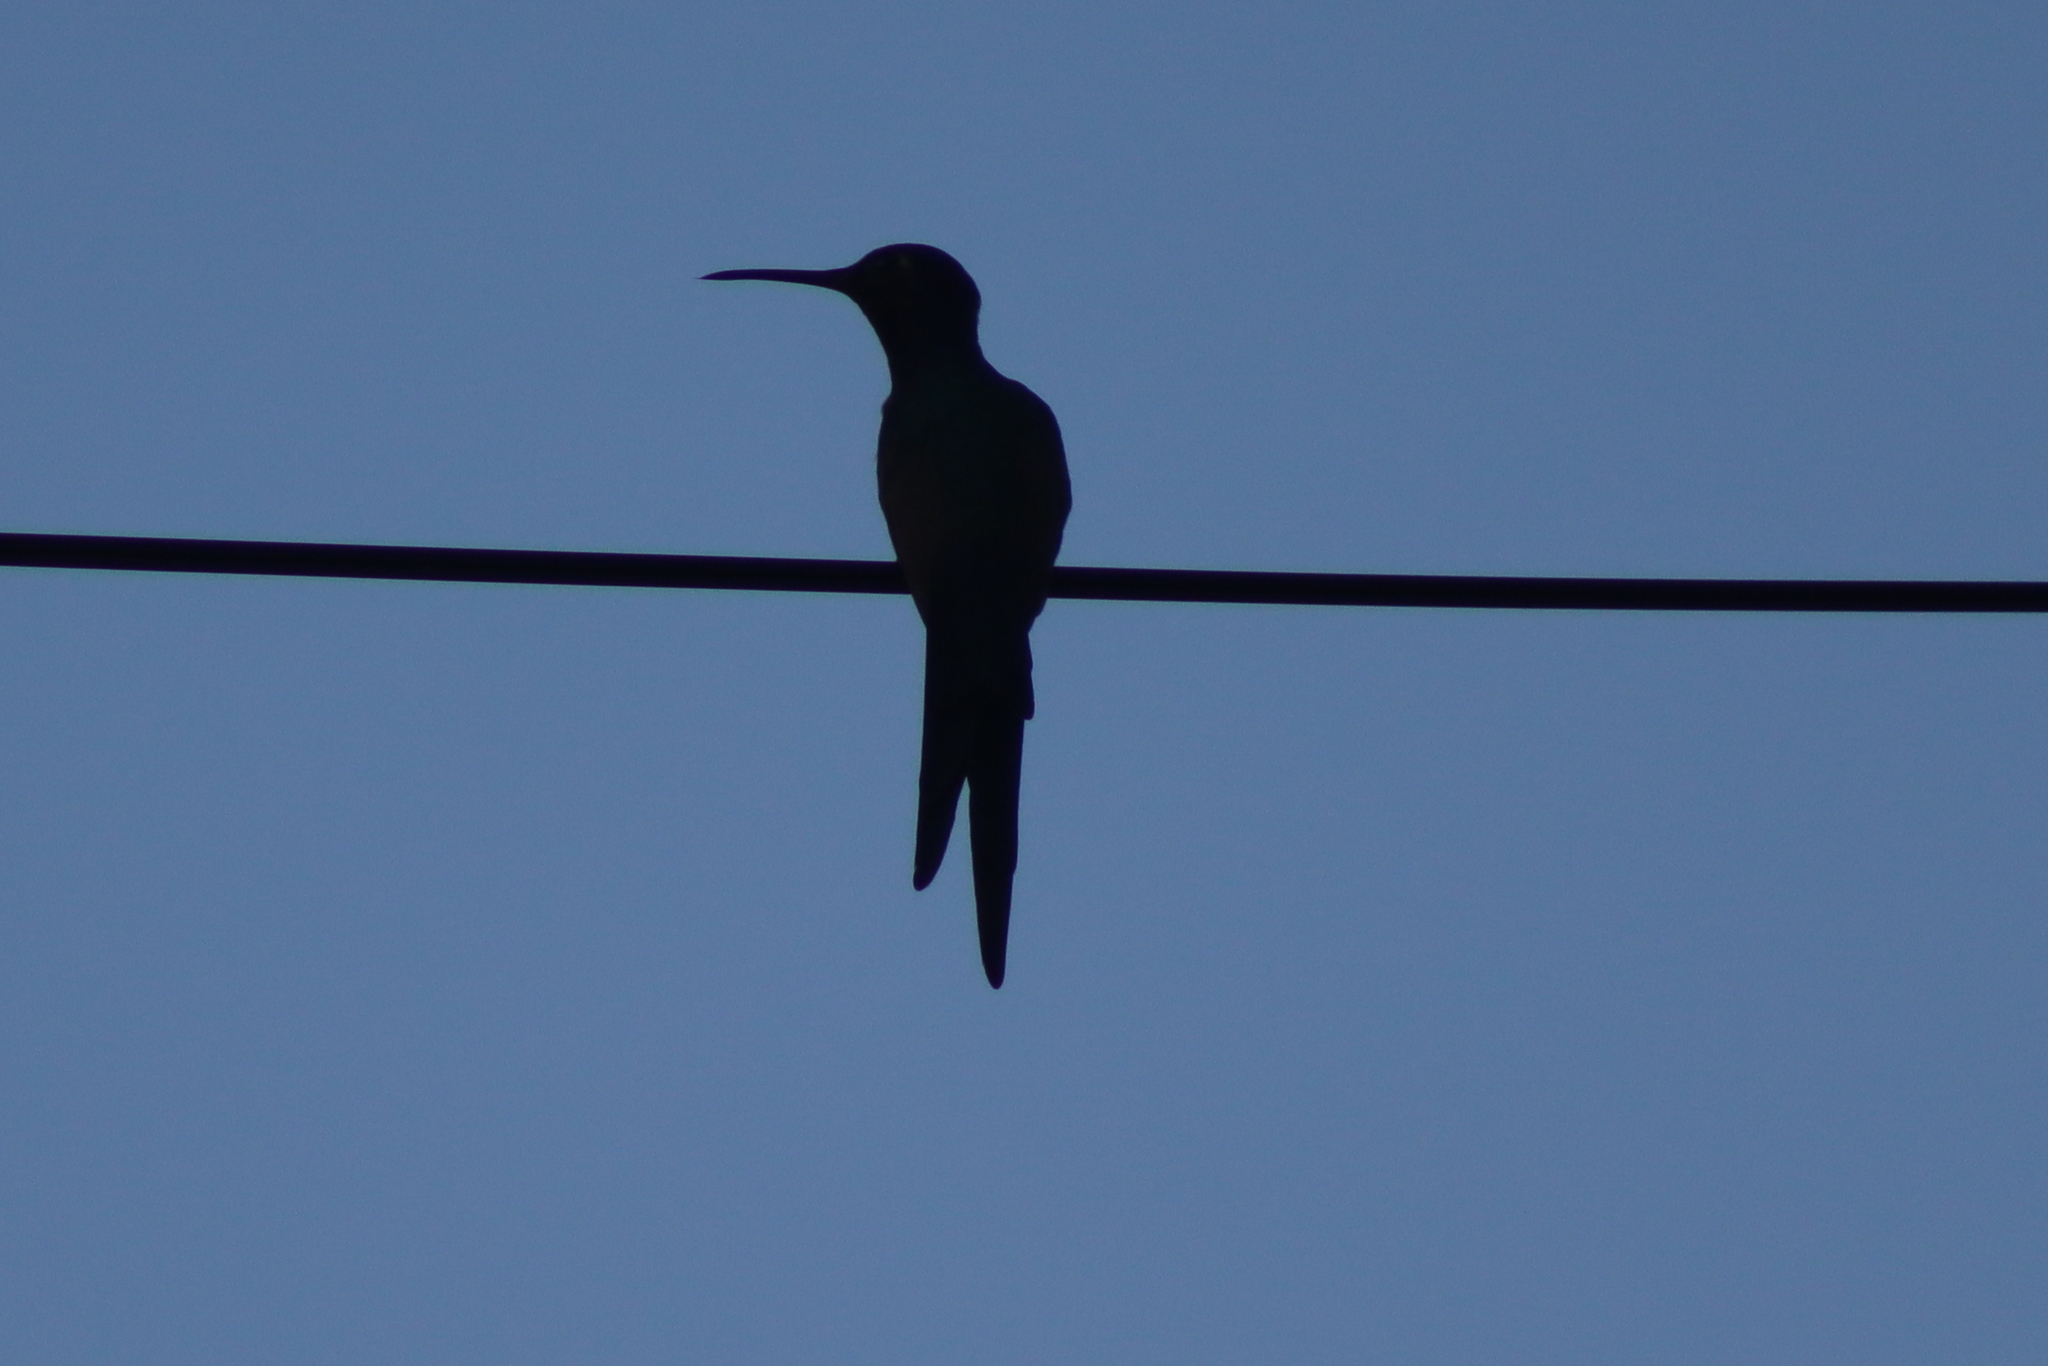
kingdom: Animalia
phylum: Chordata
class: Aves
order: Apodiformes
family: Trochilidae
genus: Eupetomena
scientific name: Eupetomena macroura
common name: Swallow-tailed hummingbird
